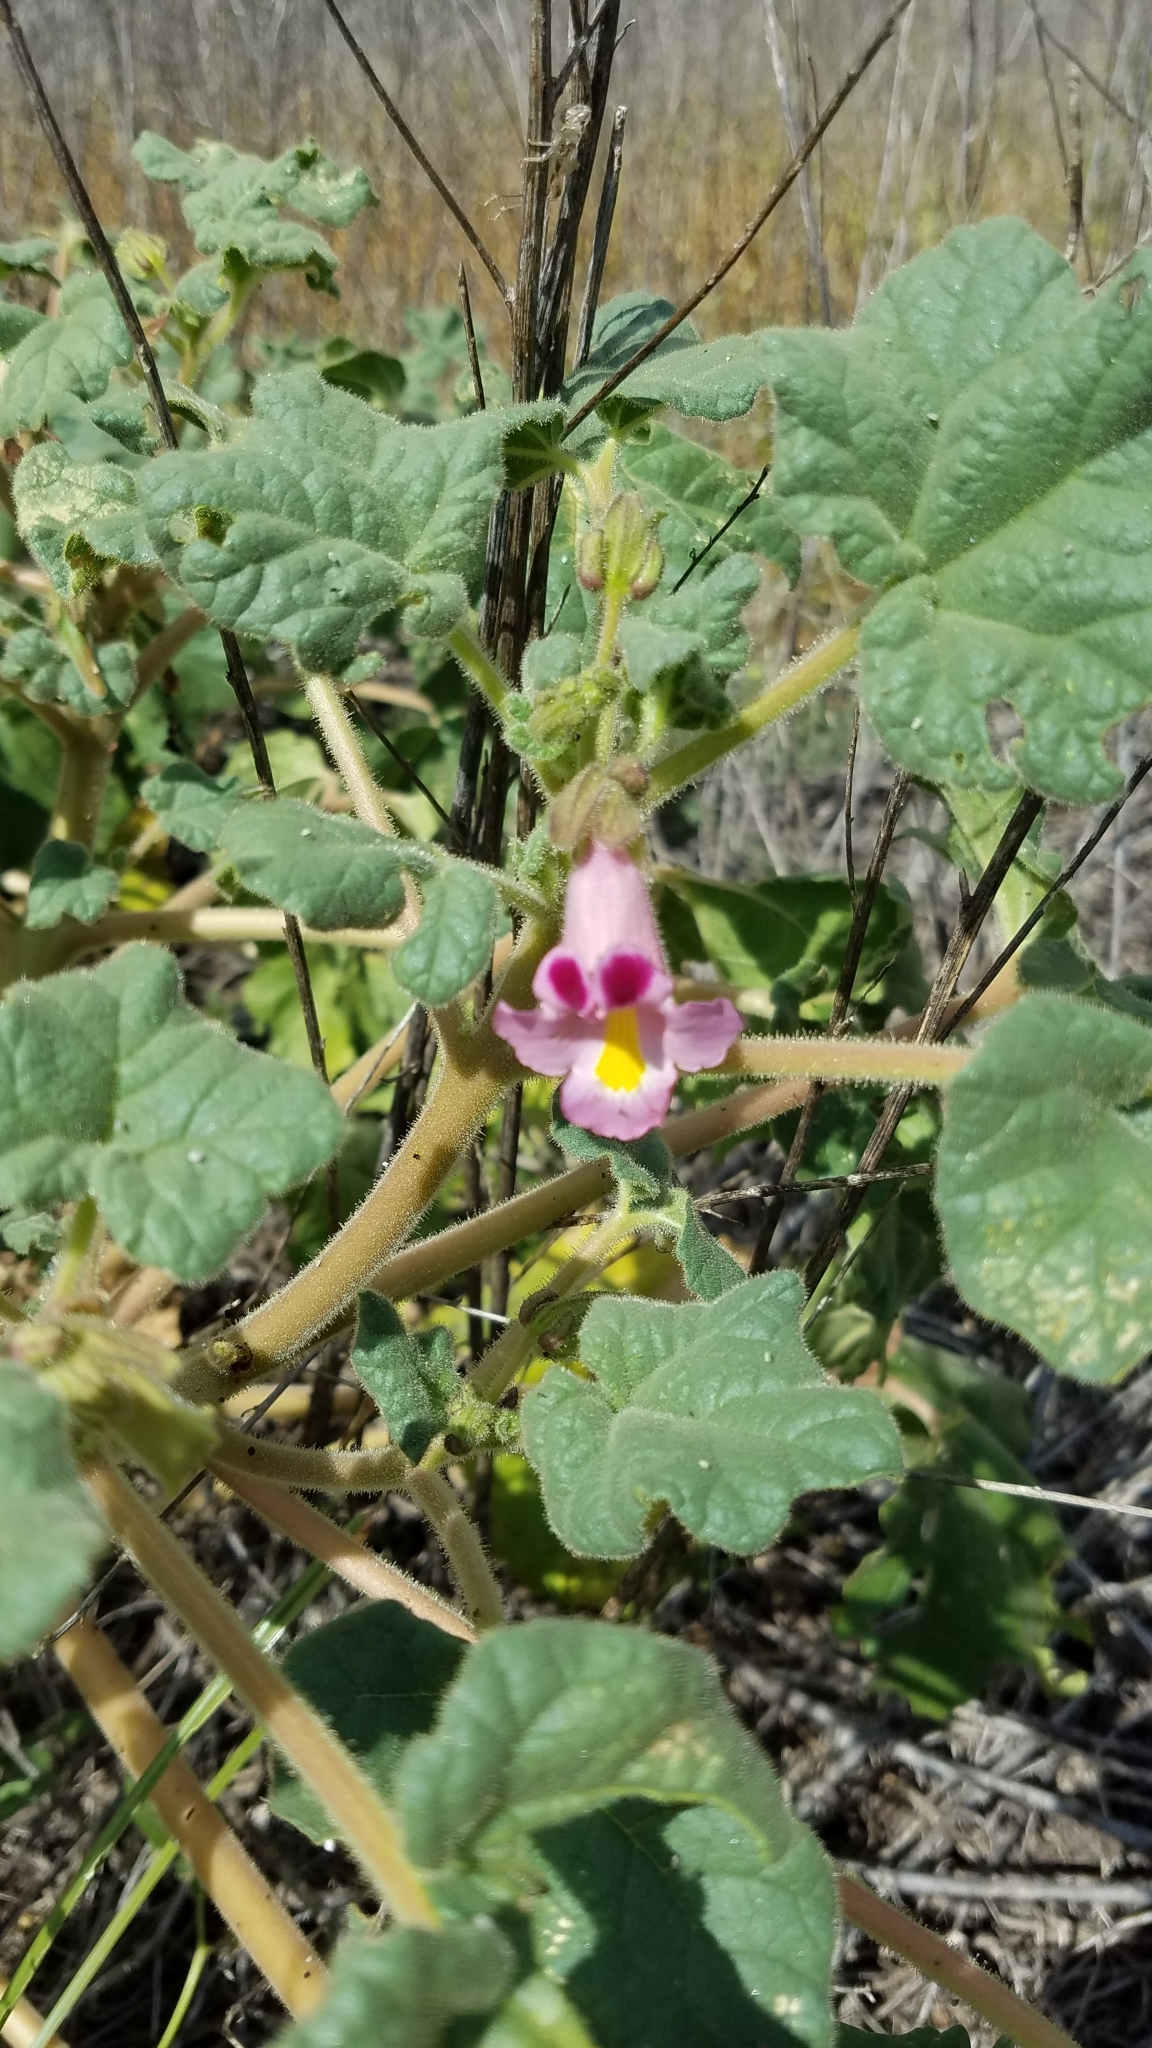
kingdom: Plantae
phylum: Tracheophyta
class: Magnoliopsida
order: Lamiales
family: Martyniaceae
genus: Proboscidea
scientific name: Proboscidea parviflora
